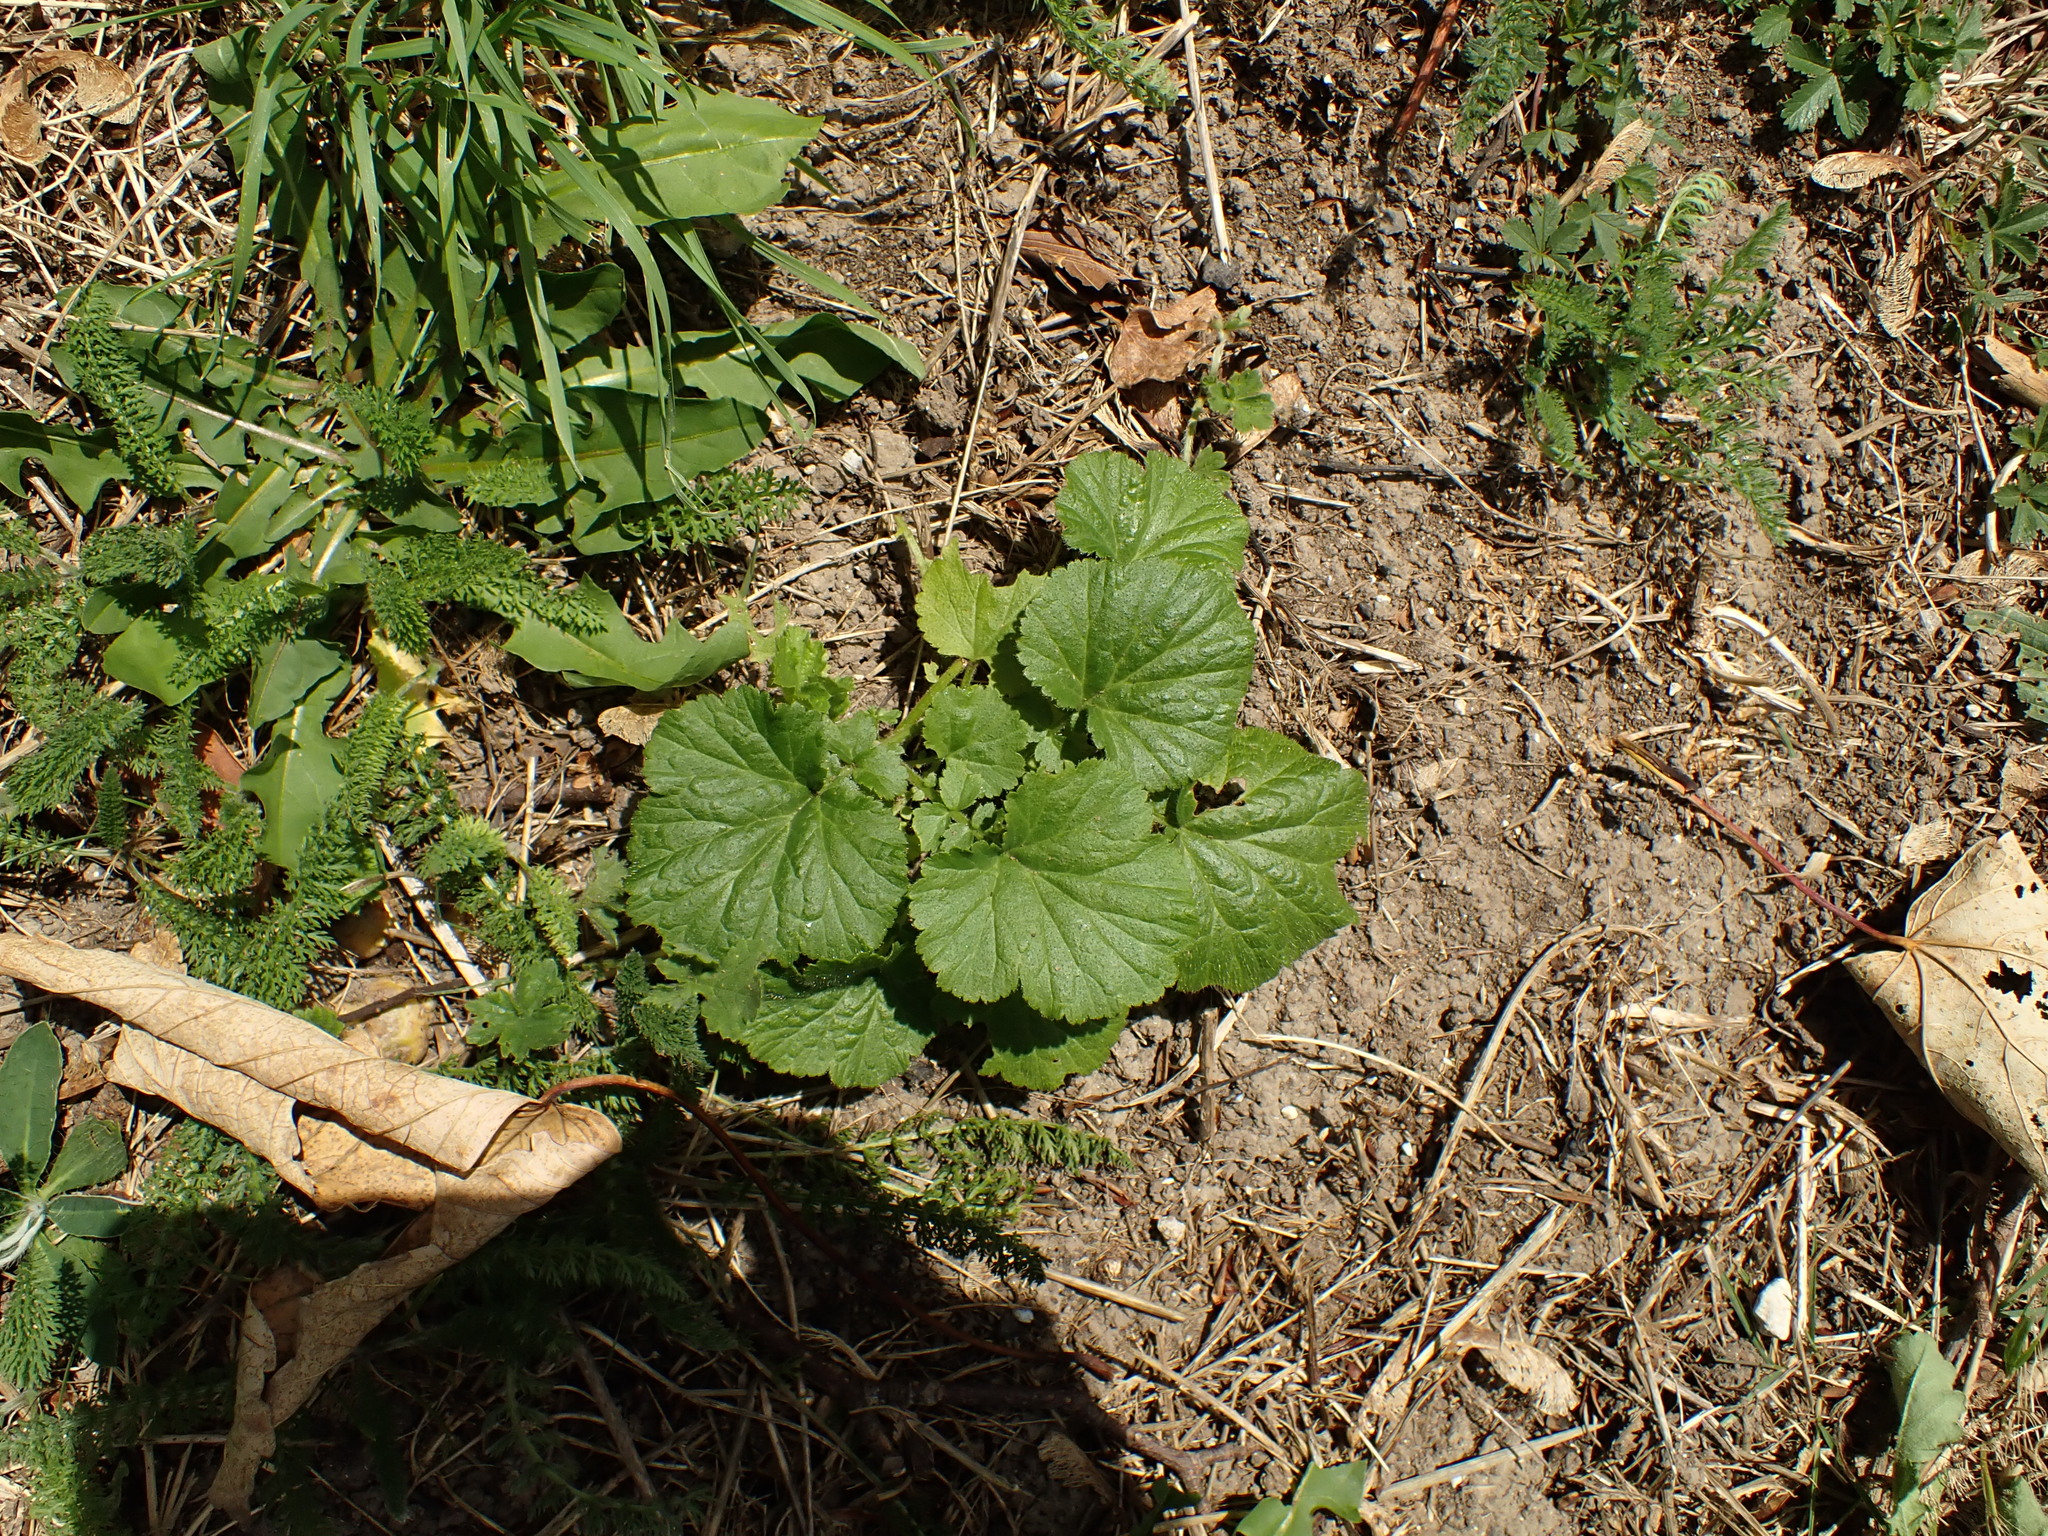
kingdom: Plantae
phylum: Tracheophyta
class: Magnoliopsida
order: Rosales
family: Rosaceae
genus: Geum
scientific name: Geum urbanum
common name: Wood avens
